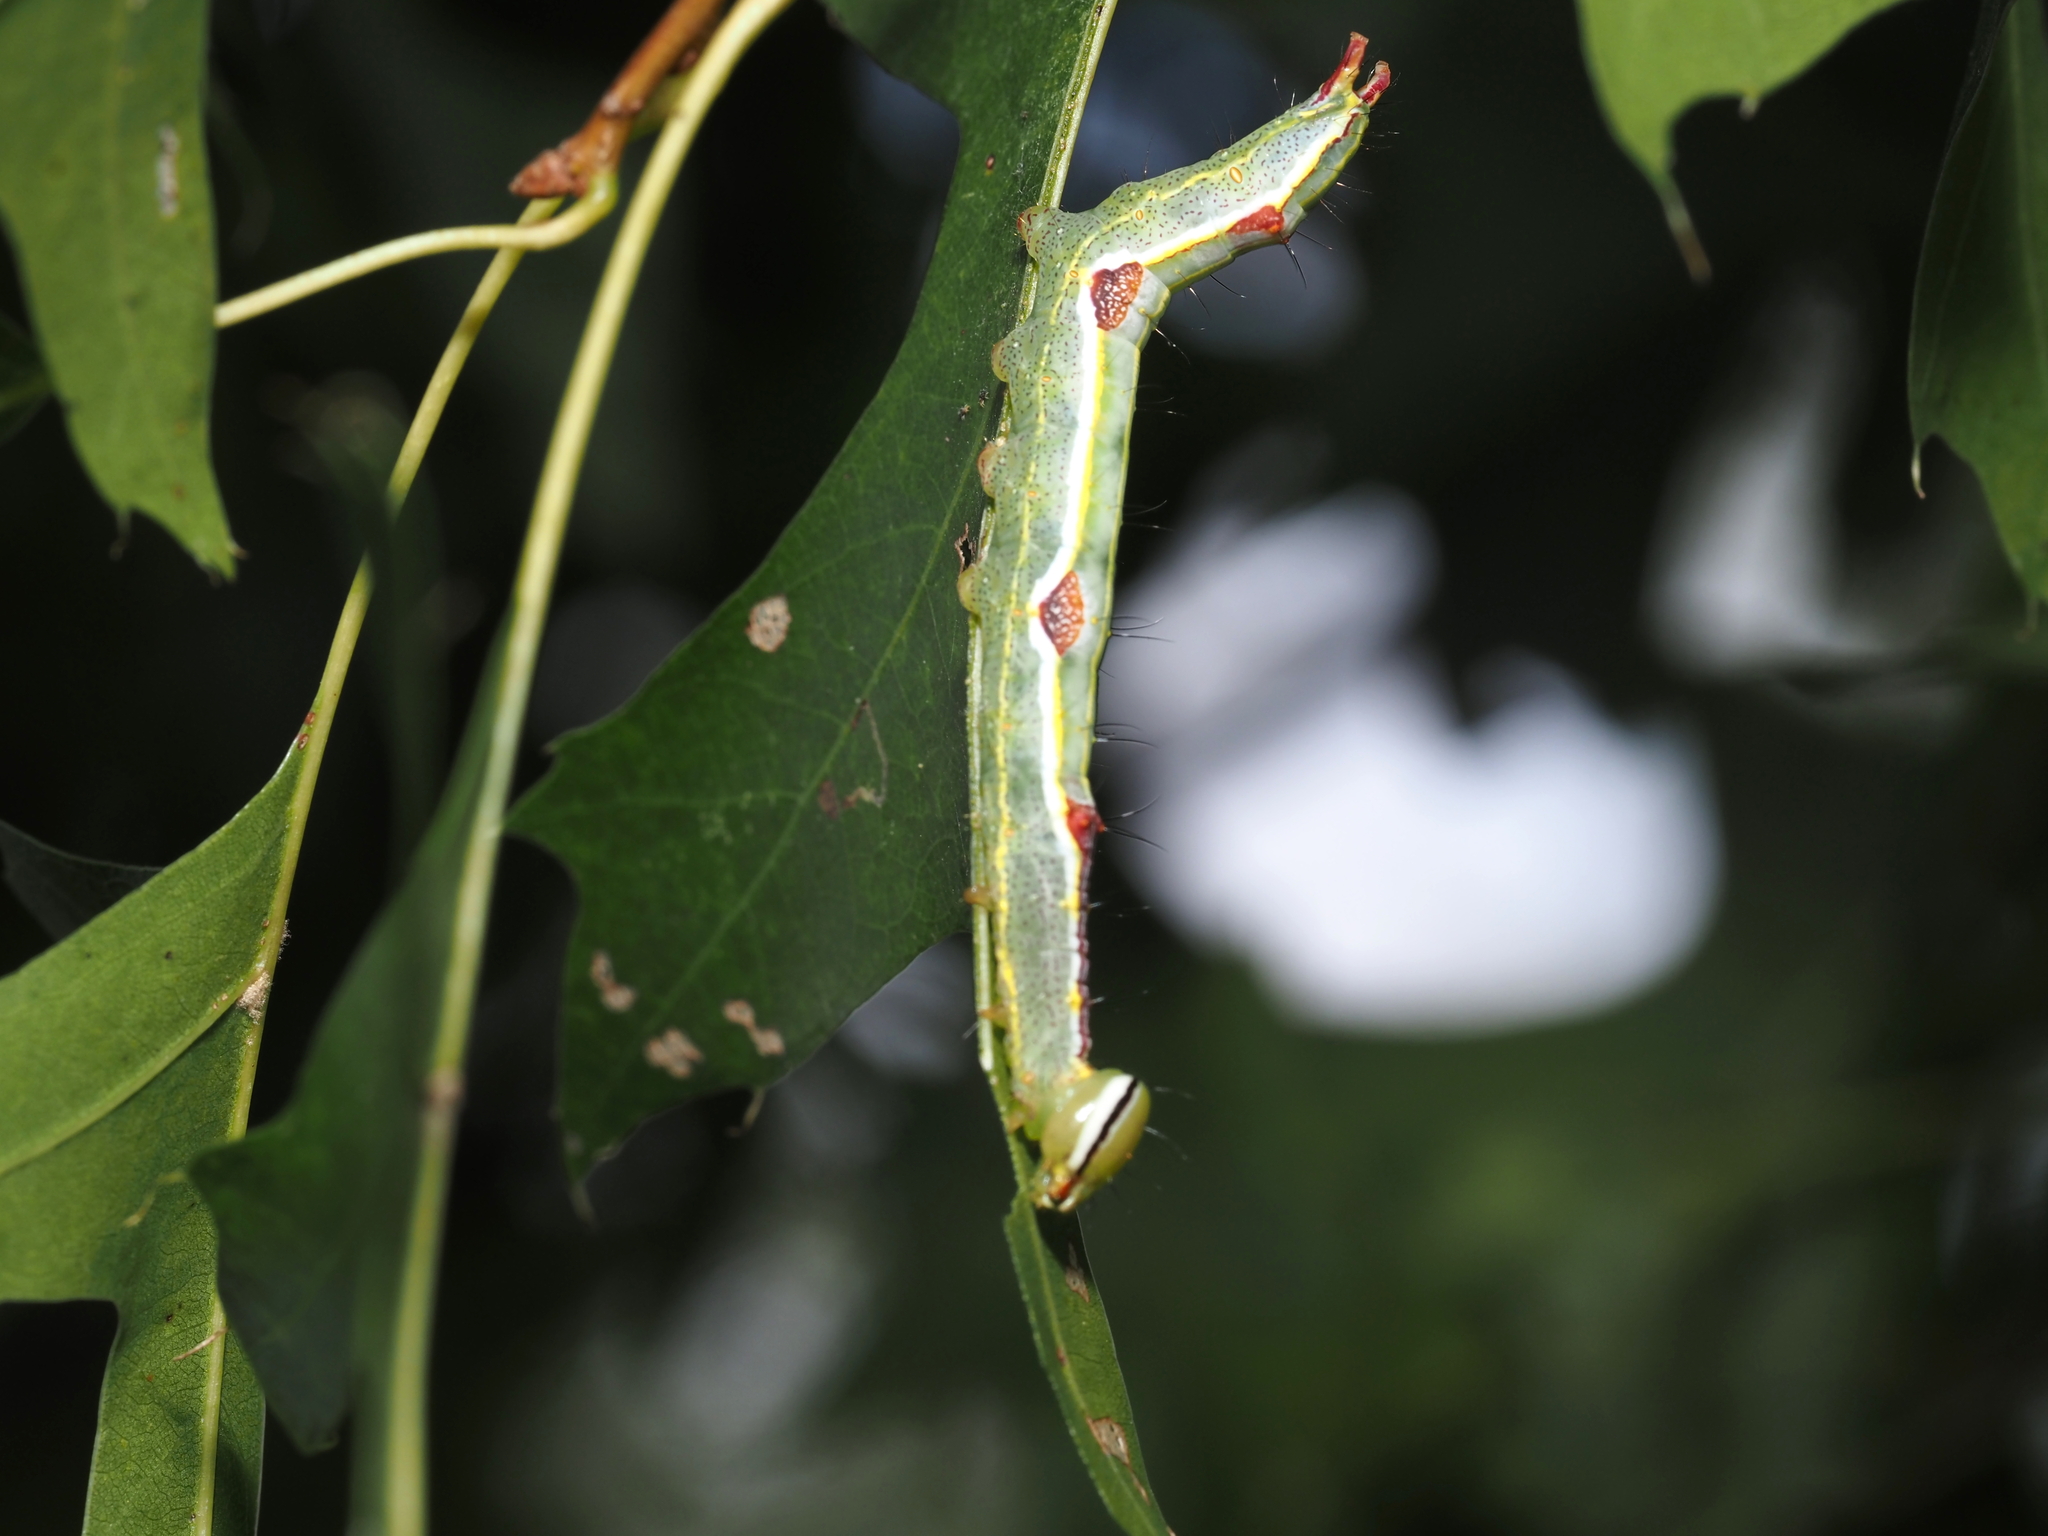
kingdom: Animalia
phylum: Arthropoda
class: Insecta
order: Lepidoptera
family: Notodontidae
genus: Lochmaeus
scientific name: Lochmaeus manteo
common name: Variable oakleaf caterpillar moth
